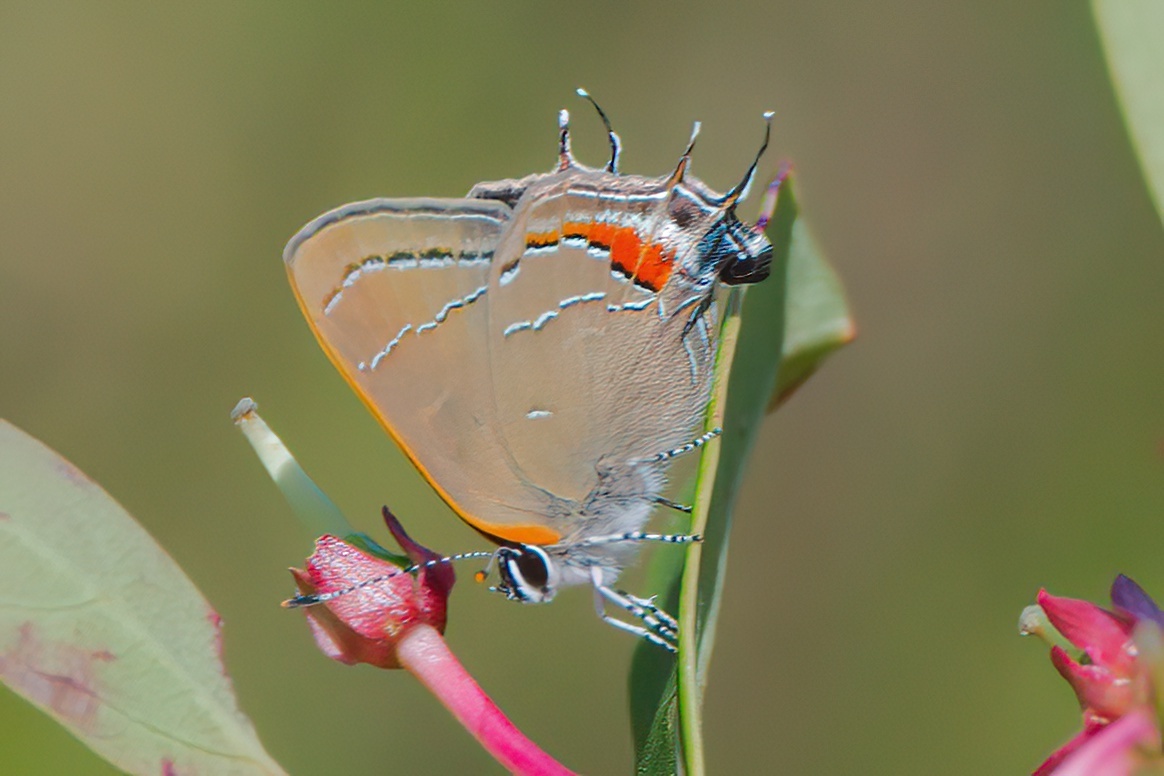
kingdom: Animalia
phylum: Arthropoda
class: Insecta
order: Lepidoptera
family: Lycaenidae
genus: Fixsenia
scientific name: Fixsenia favonius
